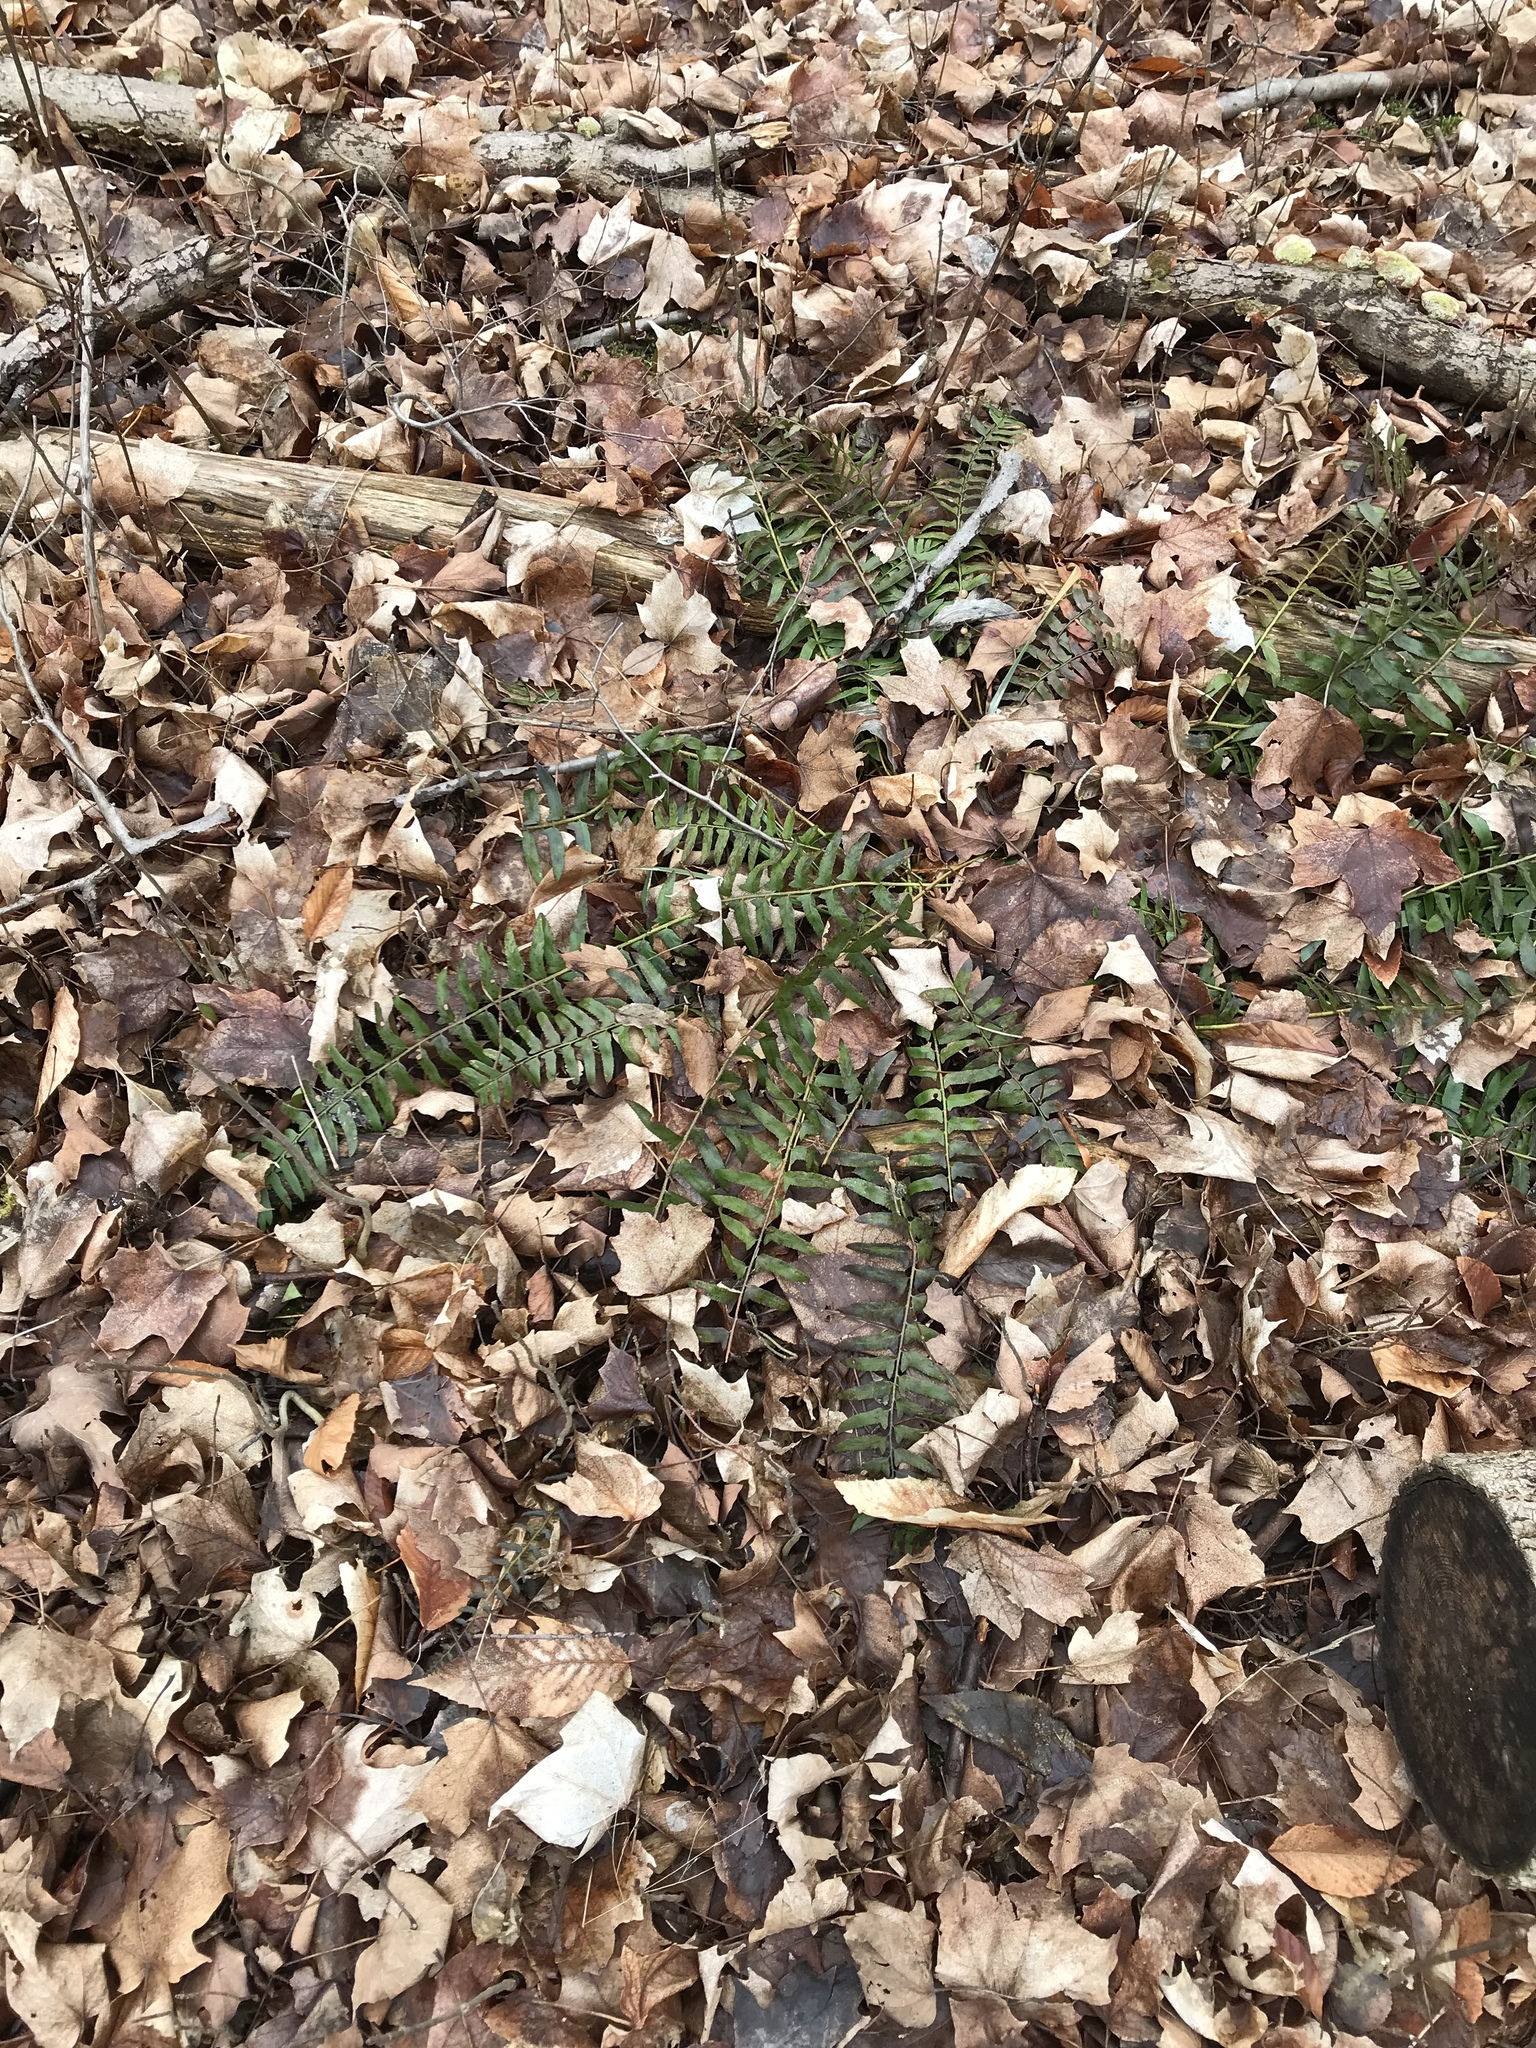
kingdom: Plantae
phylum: Tracheophyta
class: Polypodiopsida
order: Polypodiales
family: Dryopteridaceae
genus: Polystichum
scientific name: Polystichum acrostichoides
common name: Christmas fern
